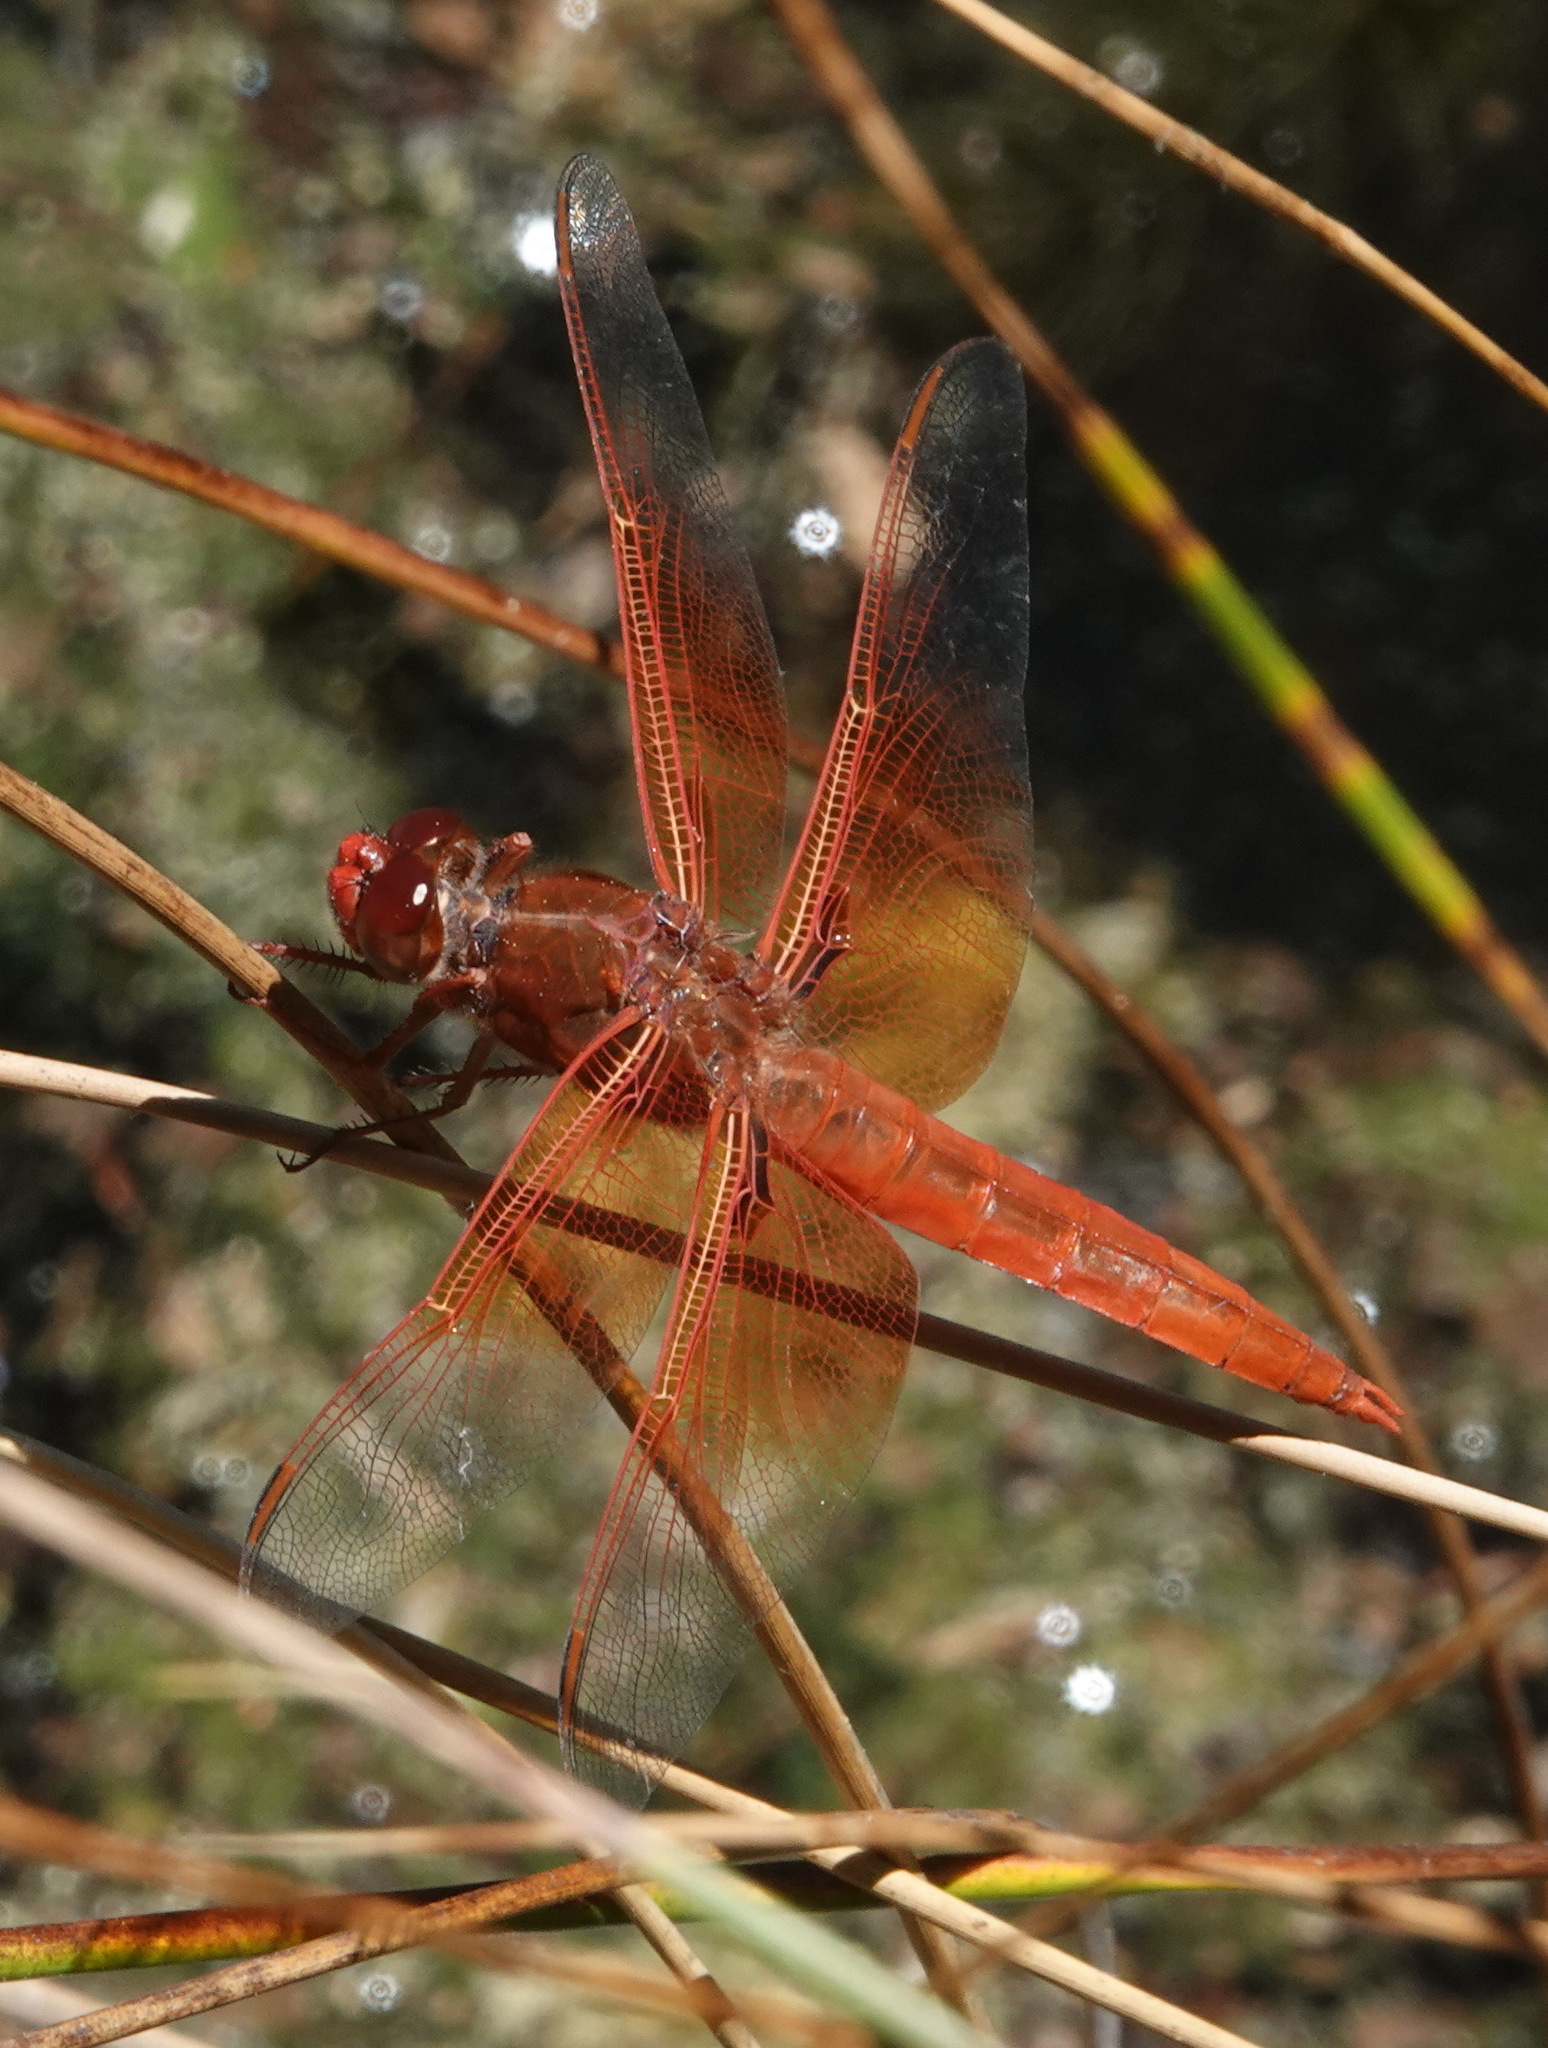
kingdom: Animalia
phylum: Arthropoda
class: Insecta
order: Odonata
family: Libellulidae
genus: Libellula
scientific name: Libellula saturata
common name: Flame skimmer
